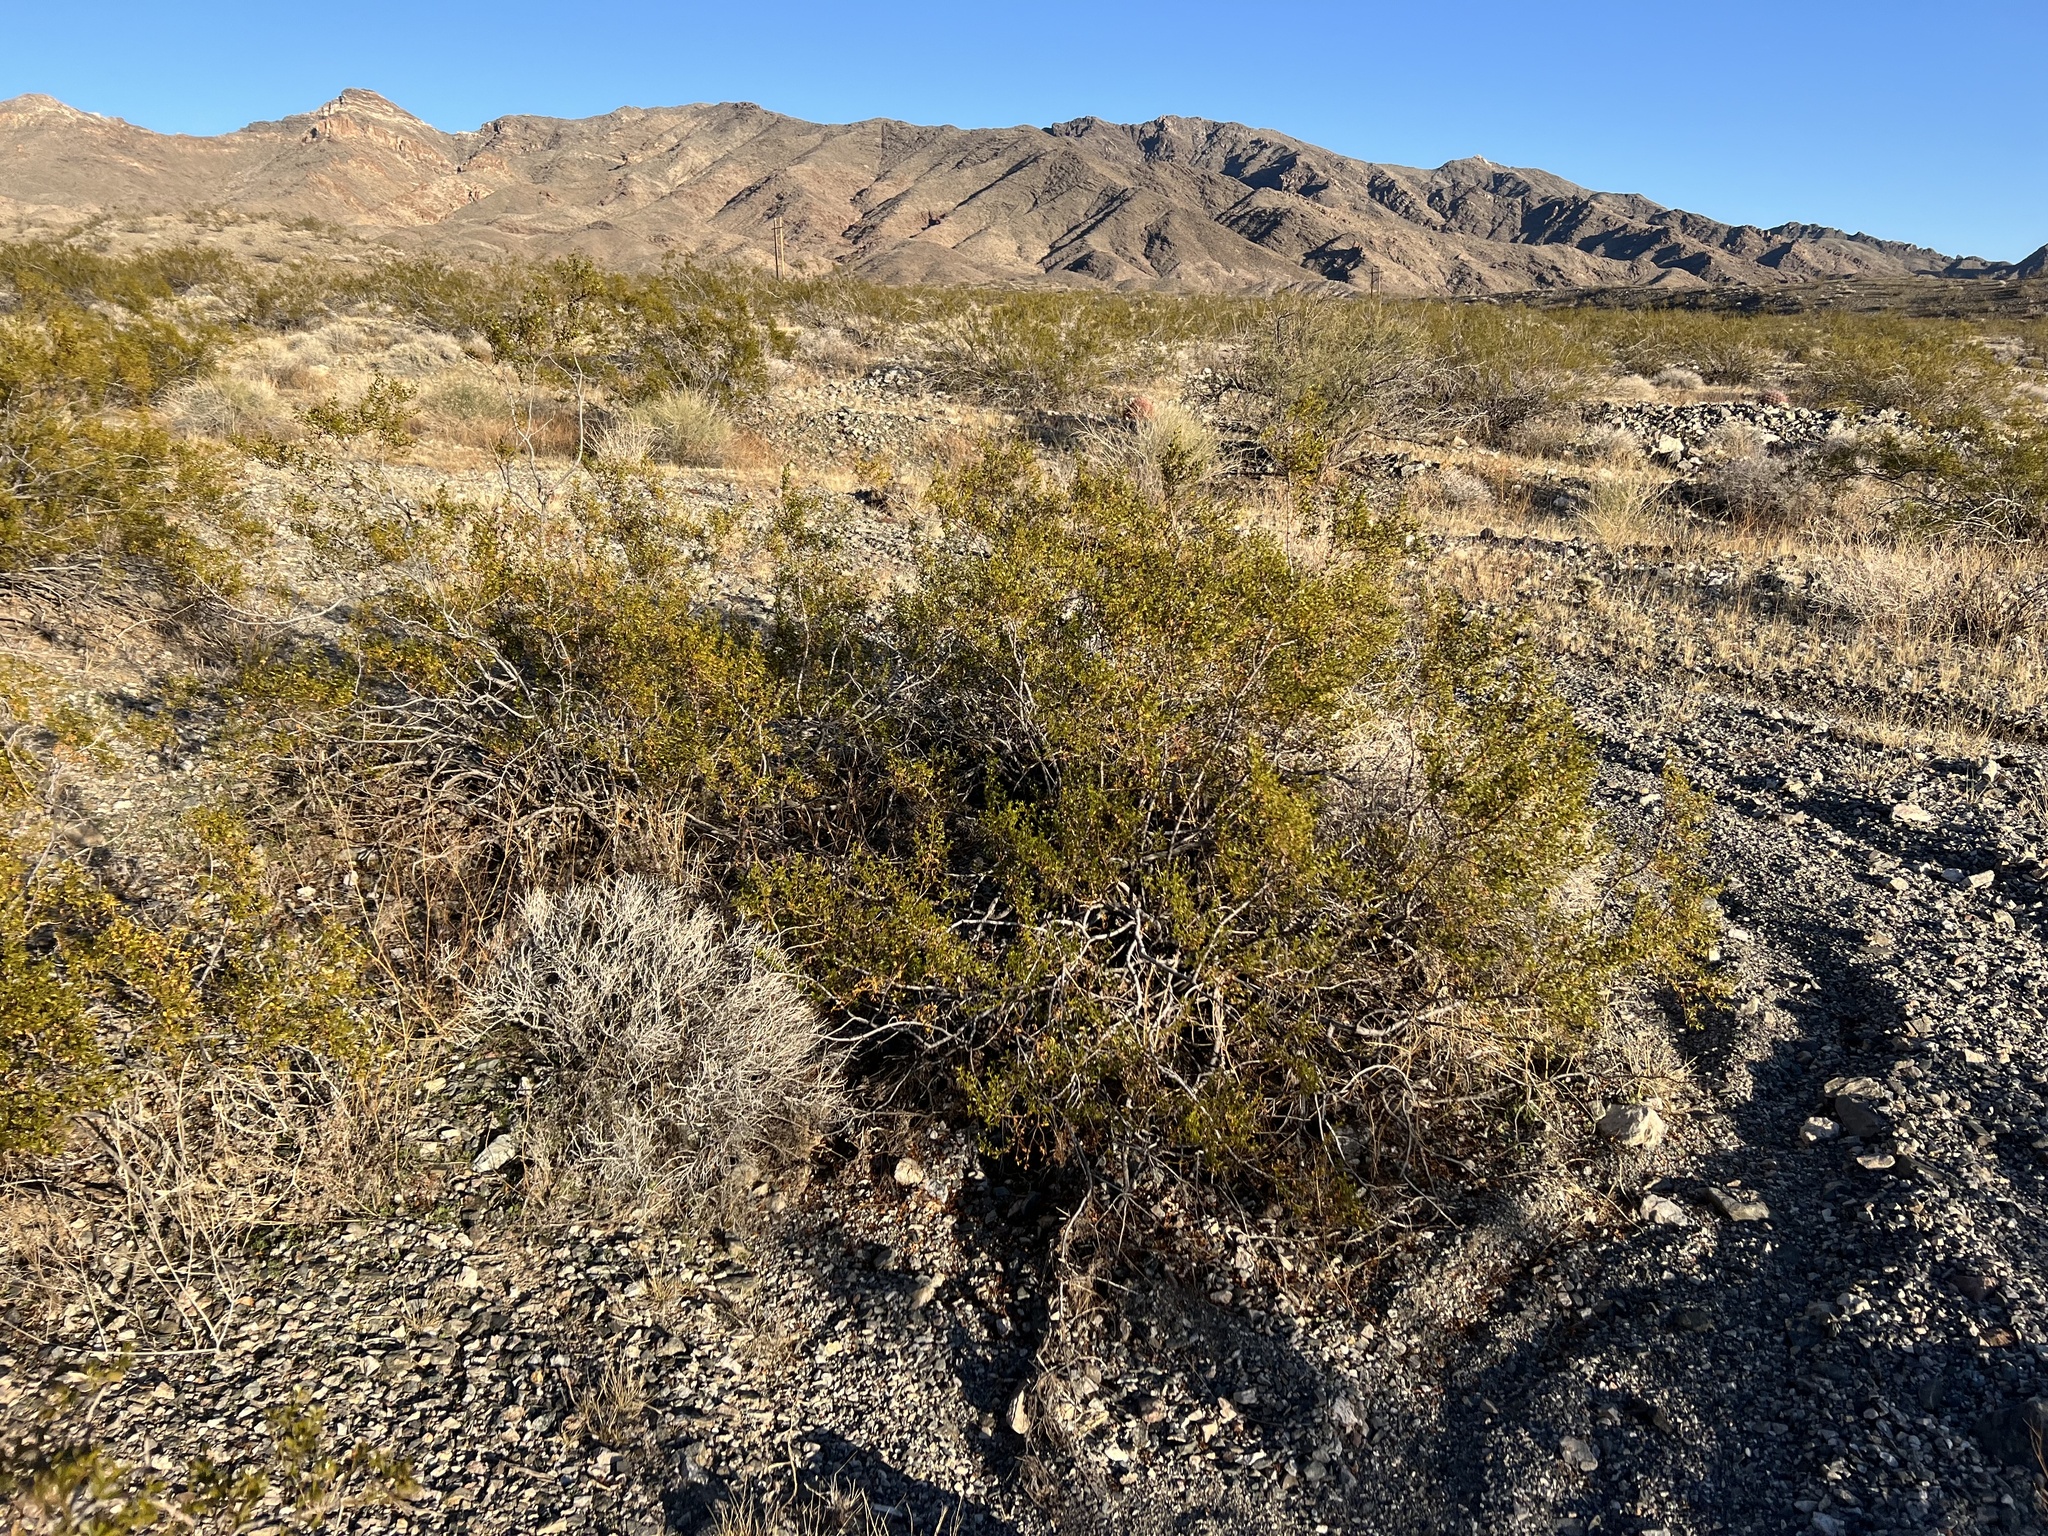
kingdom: Plantae
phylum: Tracheophyta
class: Magnoliopsida
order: Zygophyllales
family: Zygophyllaceae
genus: Larrea
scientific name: Larrea tridentata
